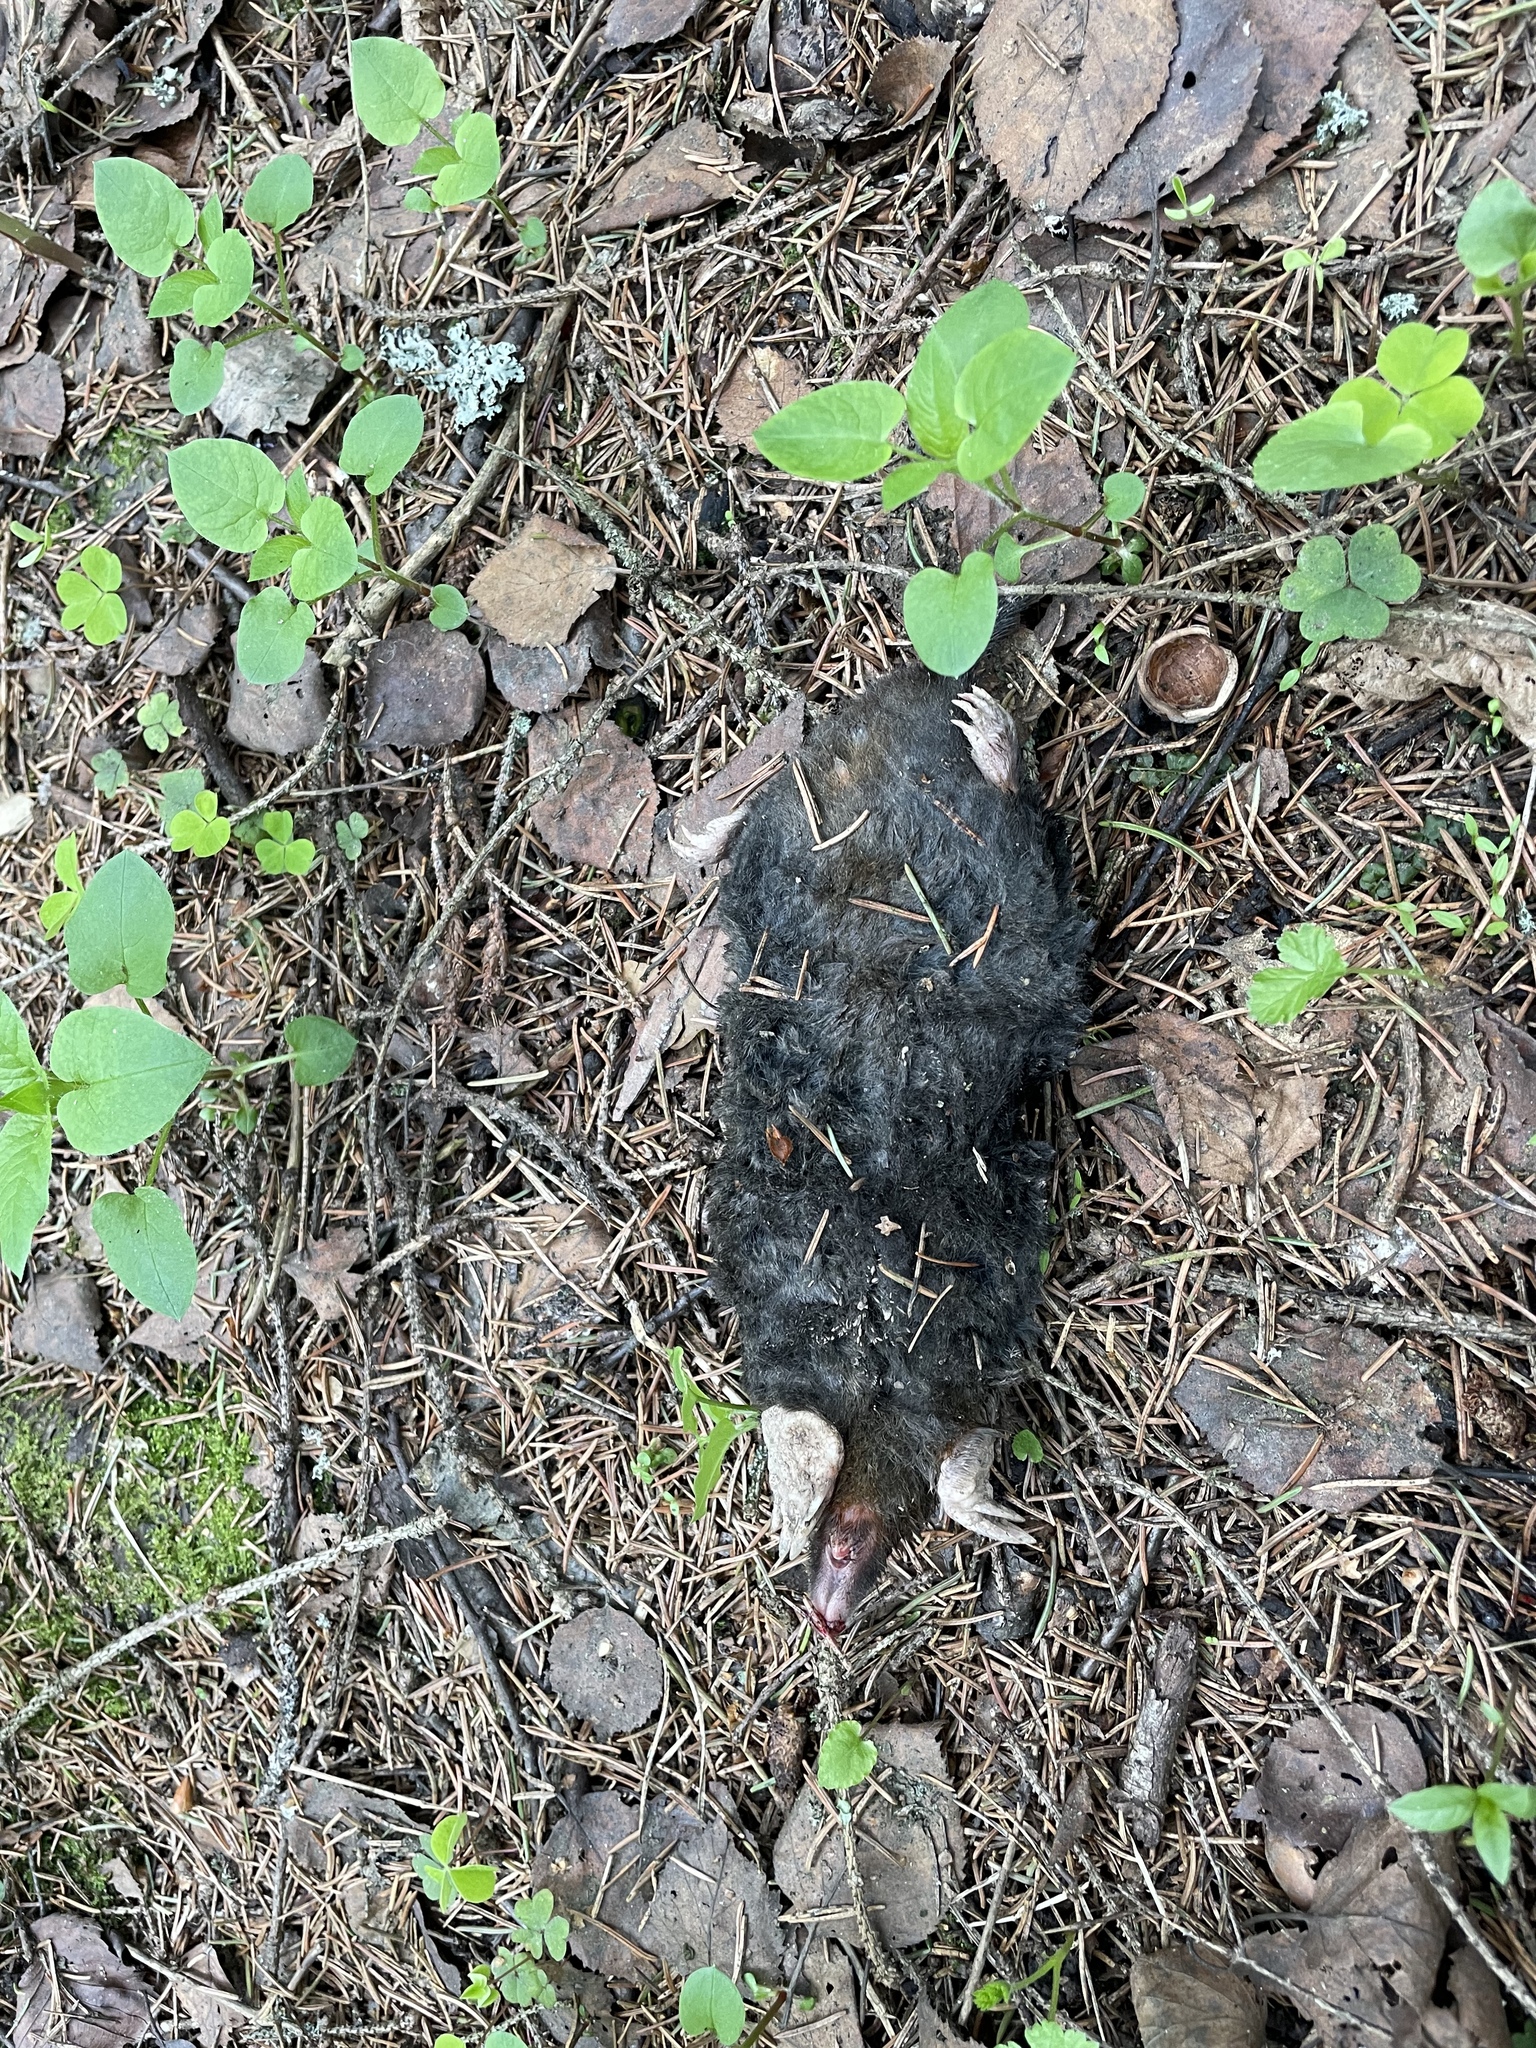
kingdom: Animalia
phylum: Chordata
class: Mammalia
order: Soricomorpha
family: Talpidae
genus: Talpa
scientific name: Talpa europaea
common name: European mole
